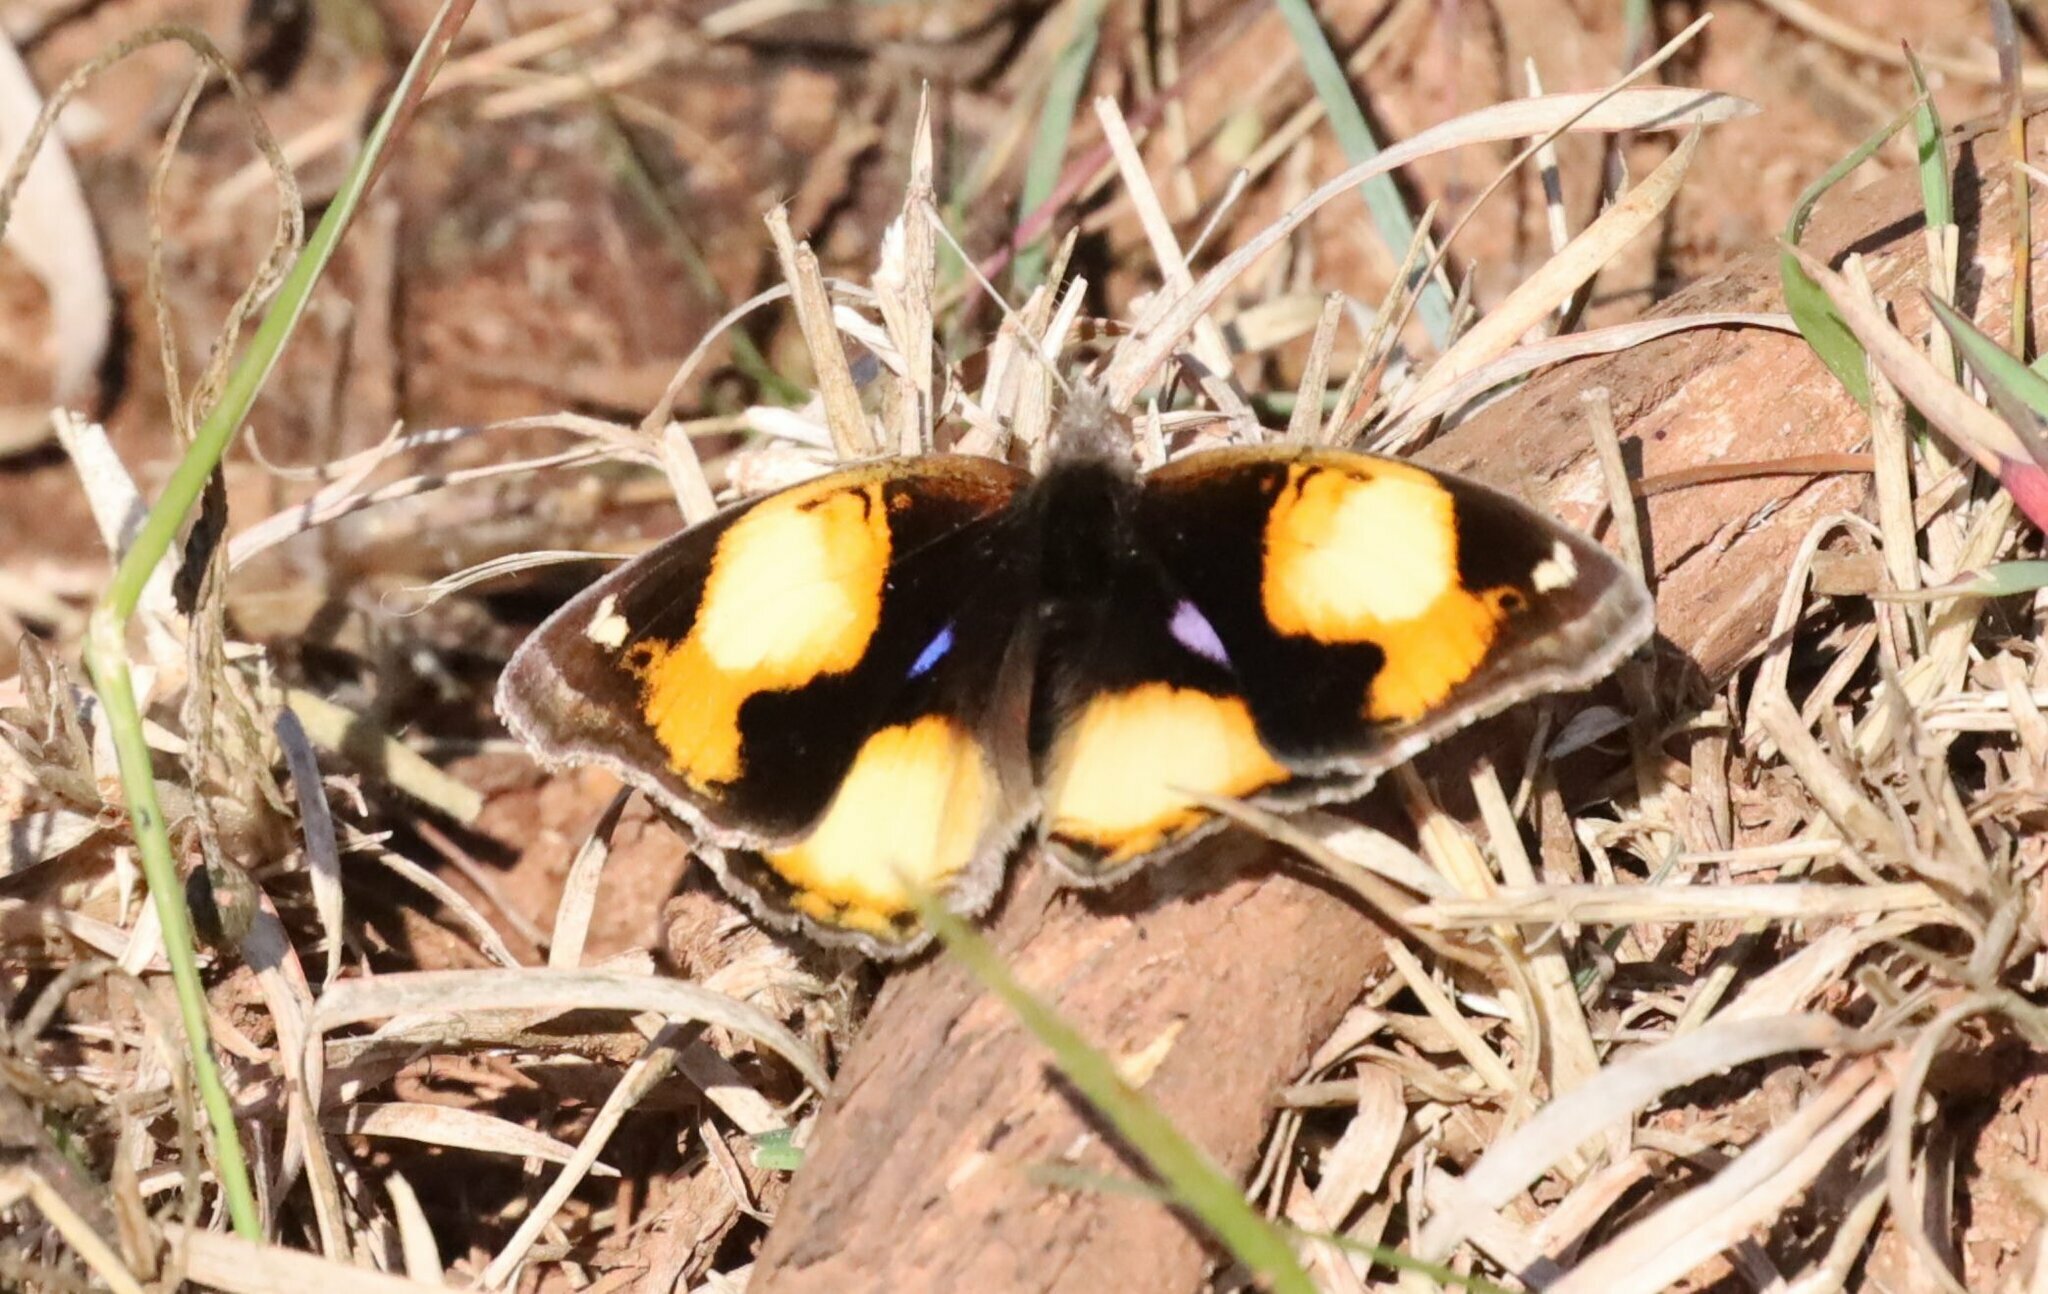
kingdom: Animalia
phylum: Arthropoda
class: Insecta
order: Lepidoptera
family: Nymphalidae
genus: Junonia
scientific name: Junonia hierta
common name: Yellow pansy
